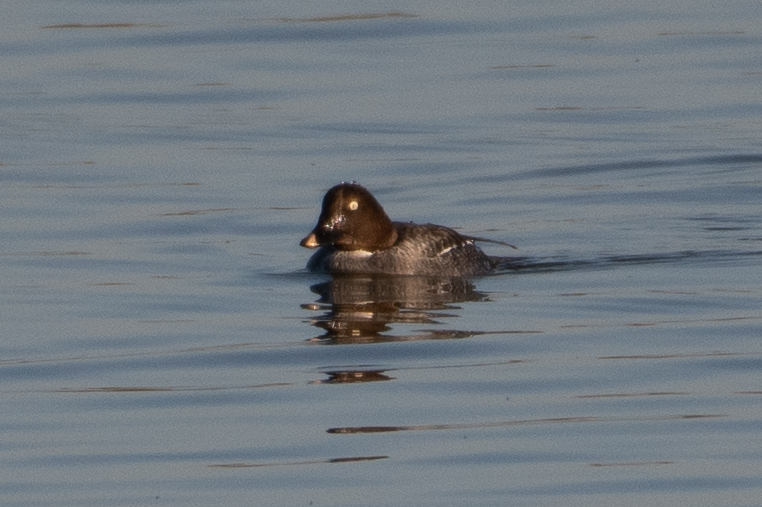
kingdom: Animalia
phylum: Chordata
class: Aves
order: Anseriformes
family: Anatidae
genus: Bucephala
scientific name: Bucephala clangula
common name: Common goldeneye
